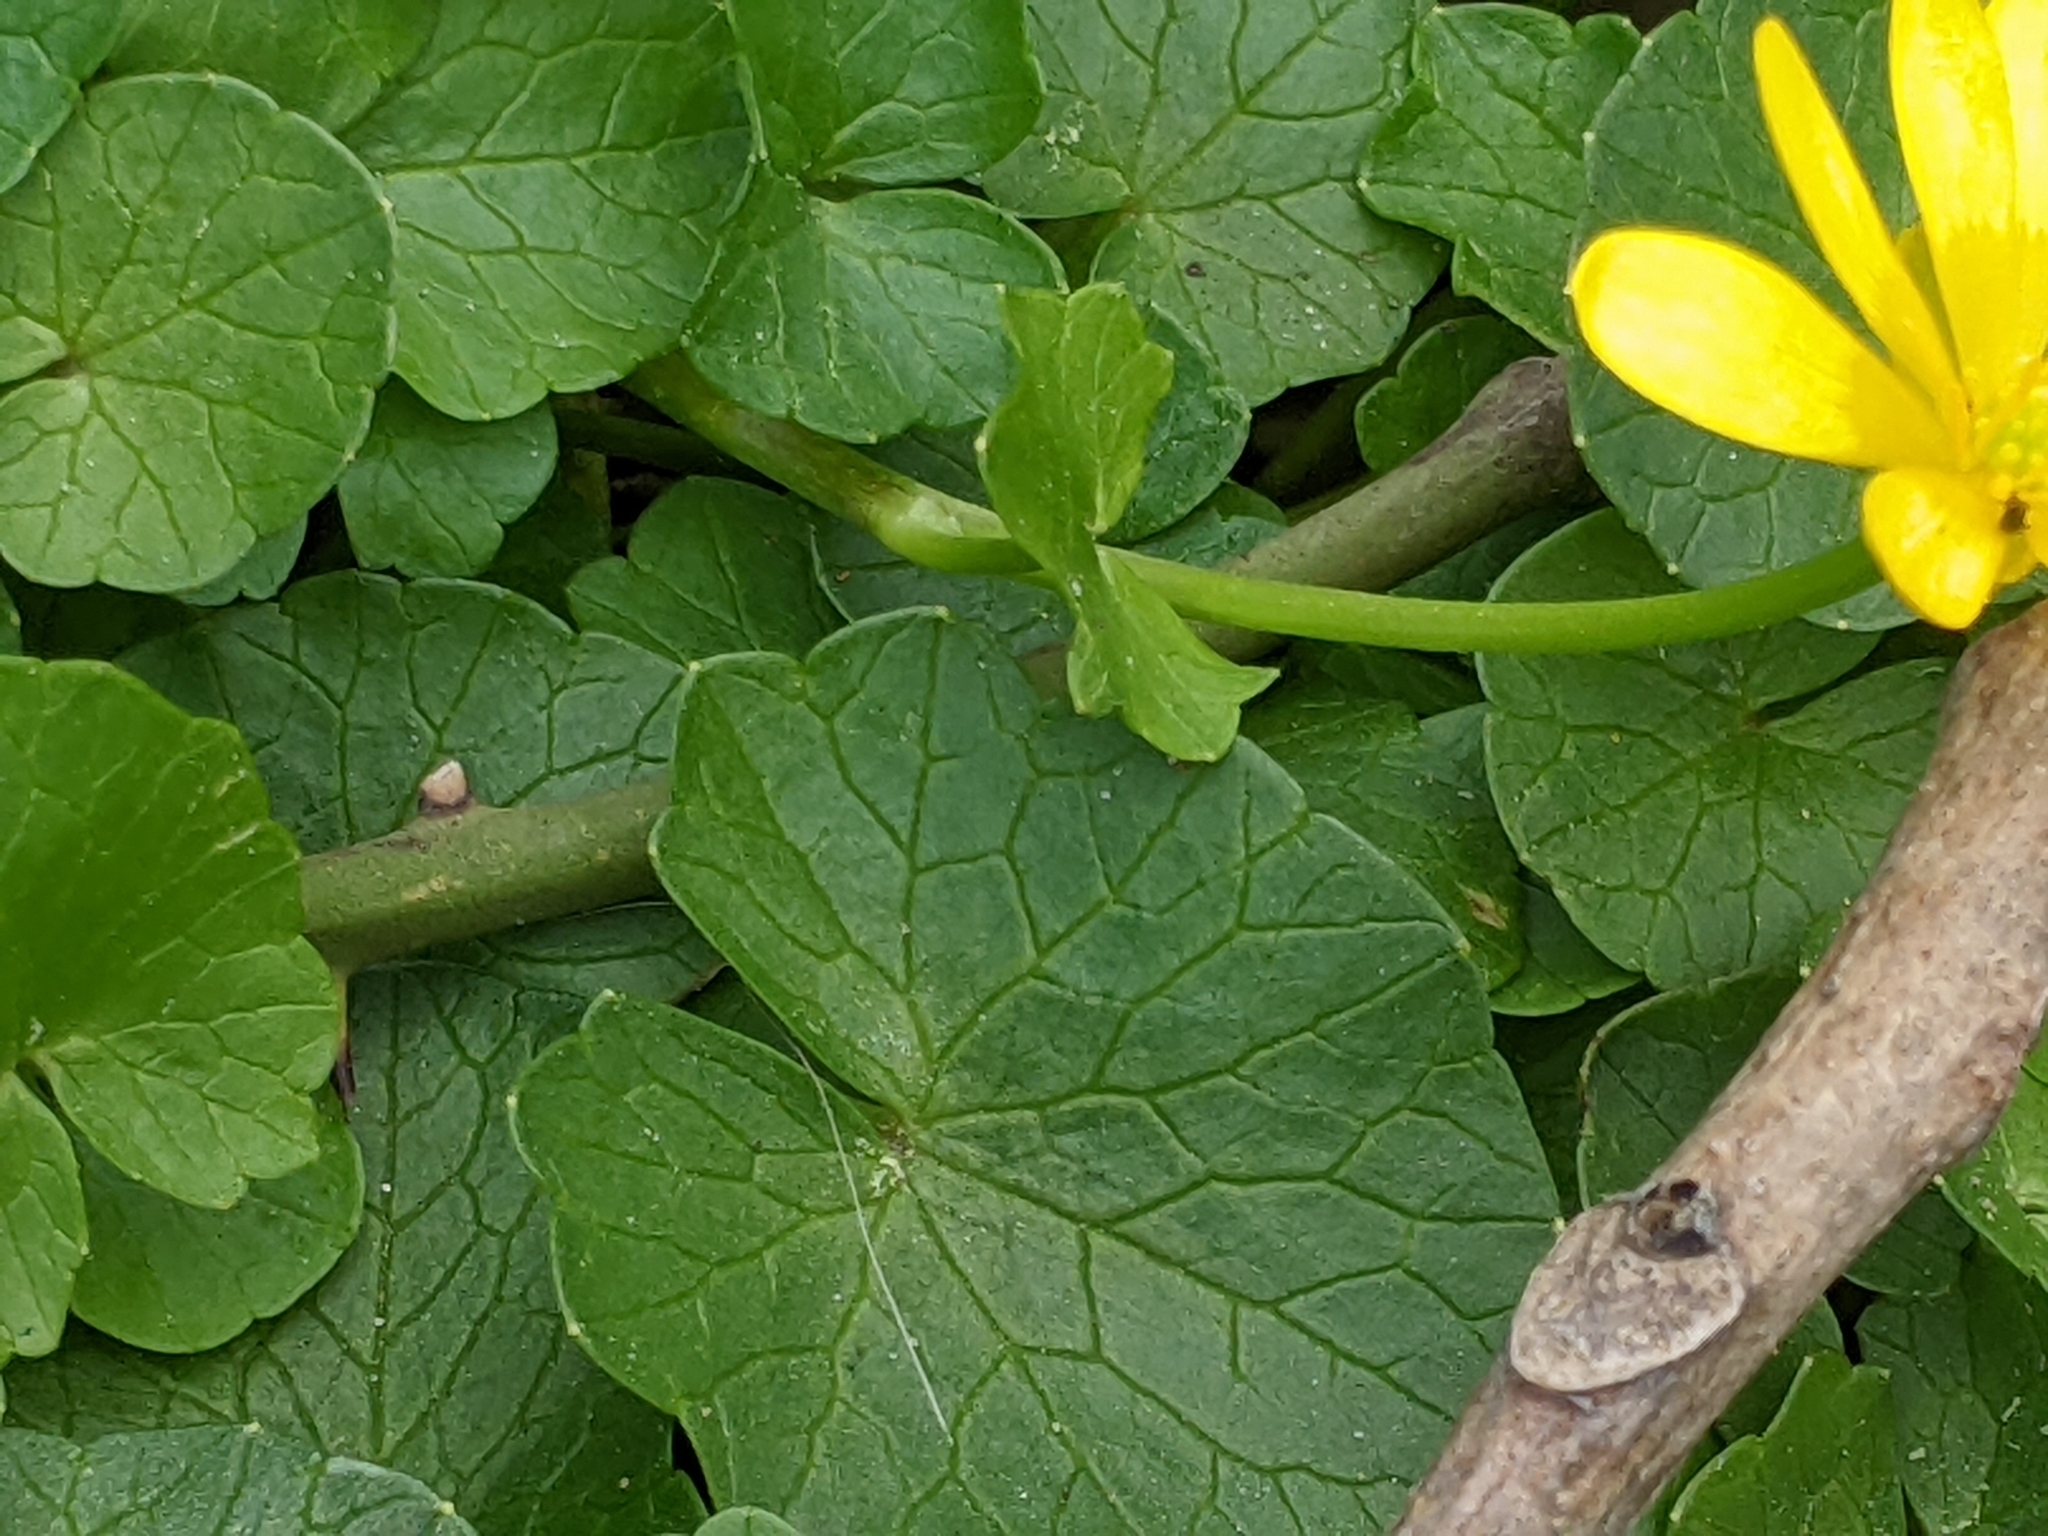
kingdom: Plantae
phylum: Tracheophyta
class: Magnoliopsida
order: Ranunculales
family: Ranunculaceae
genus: Ficaria
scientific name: Ficaria verna
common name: Lesser celandine
